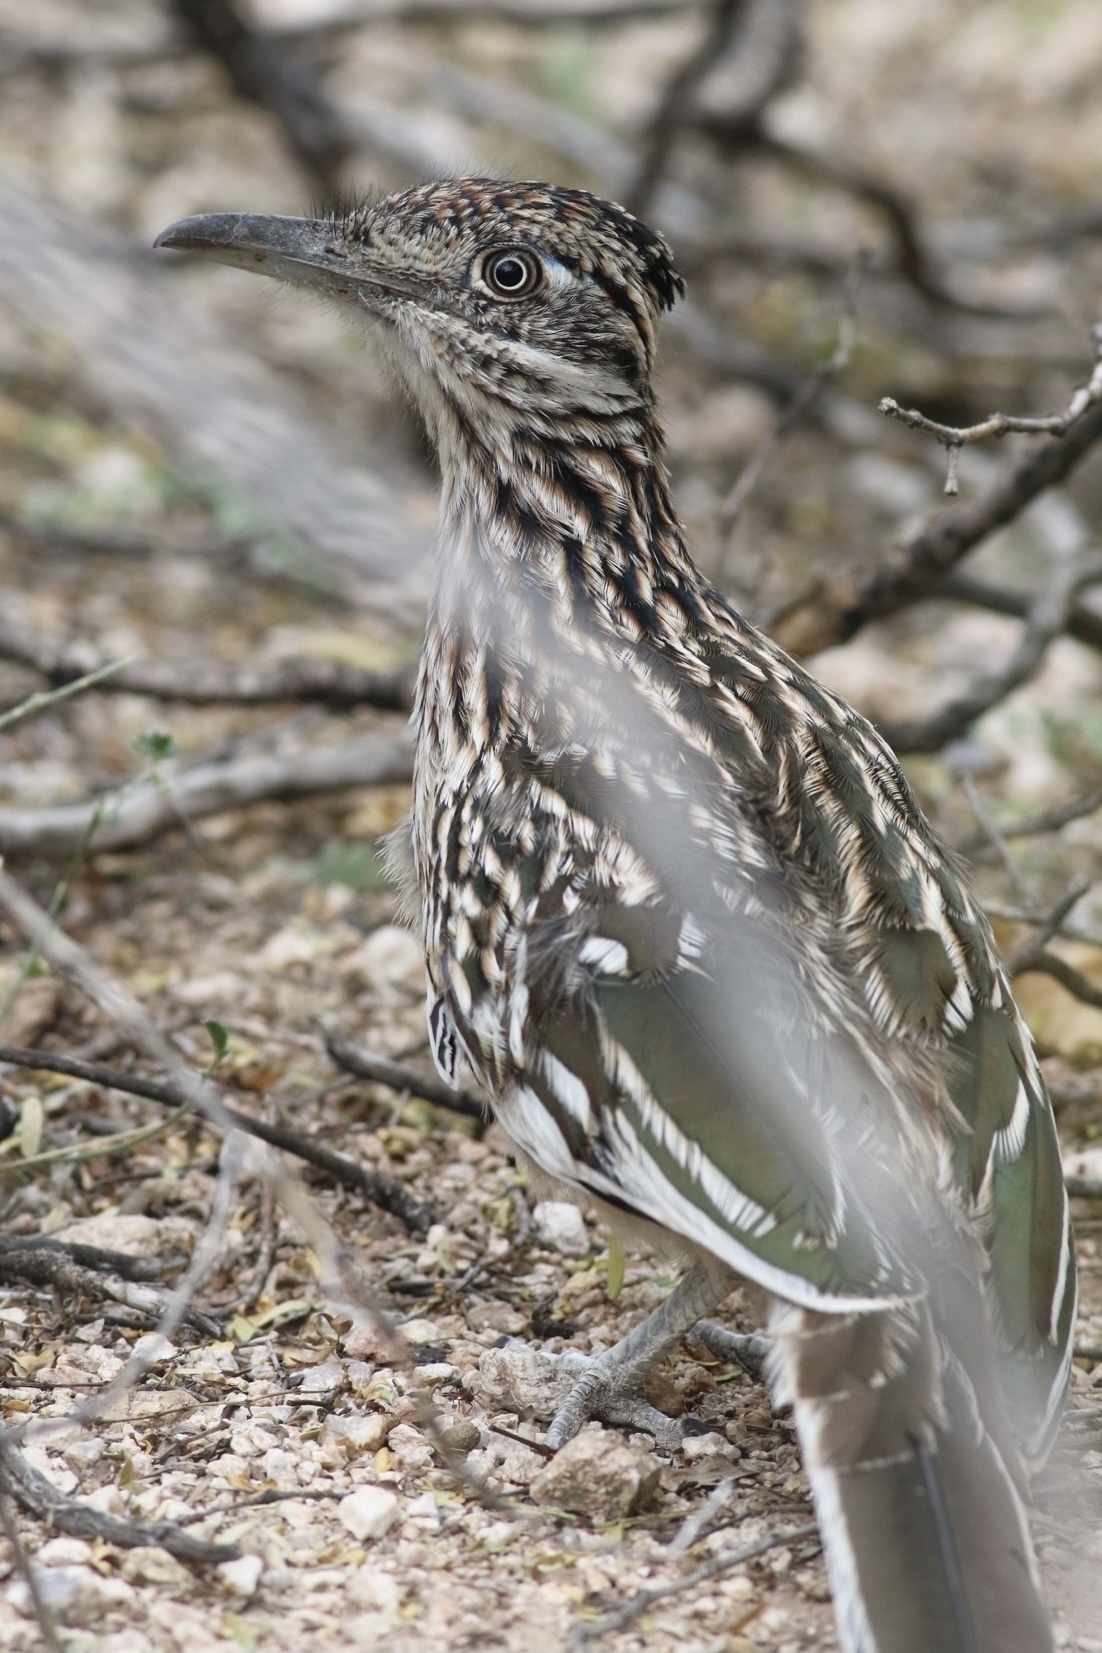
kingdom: Animalia
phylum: Chordata
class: Aves
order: Cuculiformes
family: Cuculidae
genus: Geococcyx
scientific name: Geococcyx californianus
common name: Greater roadrunner
